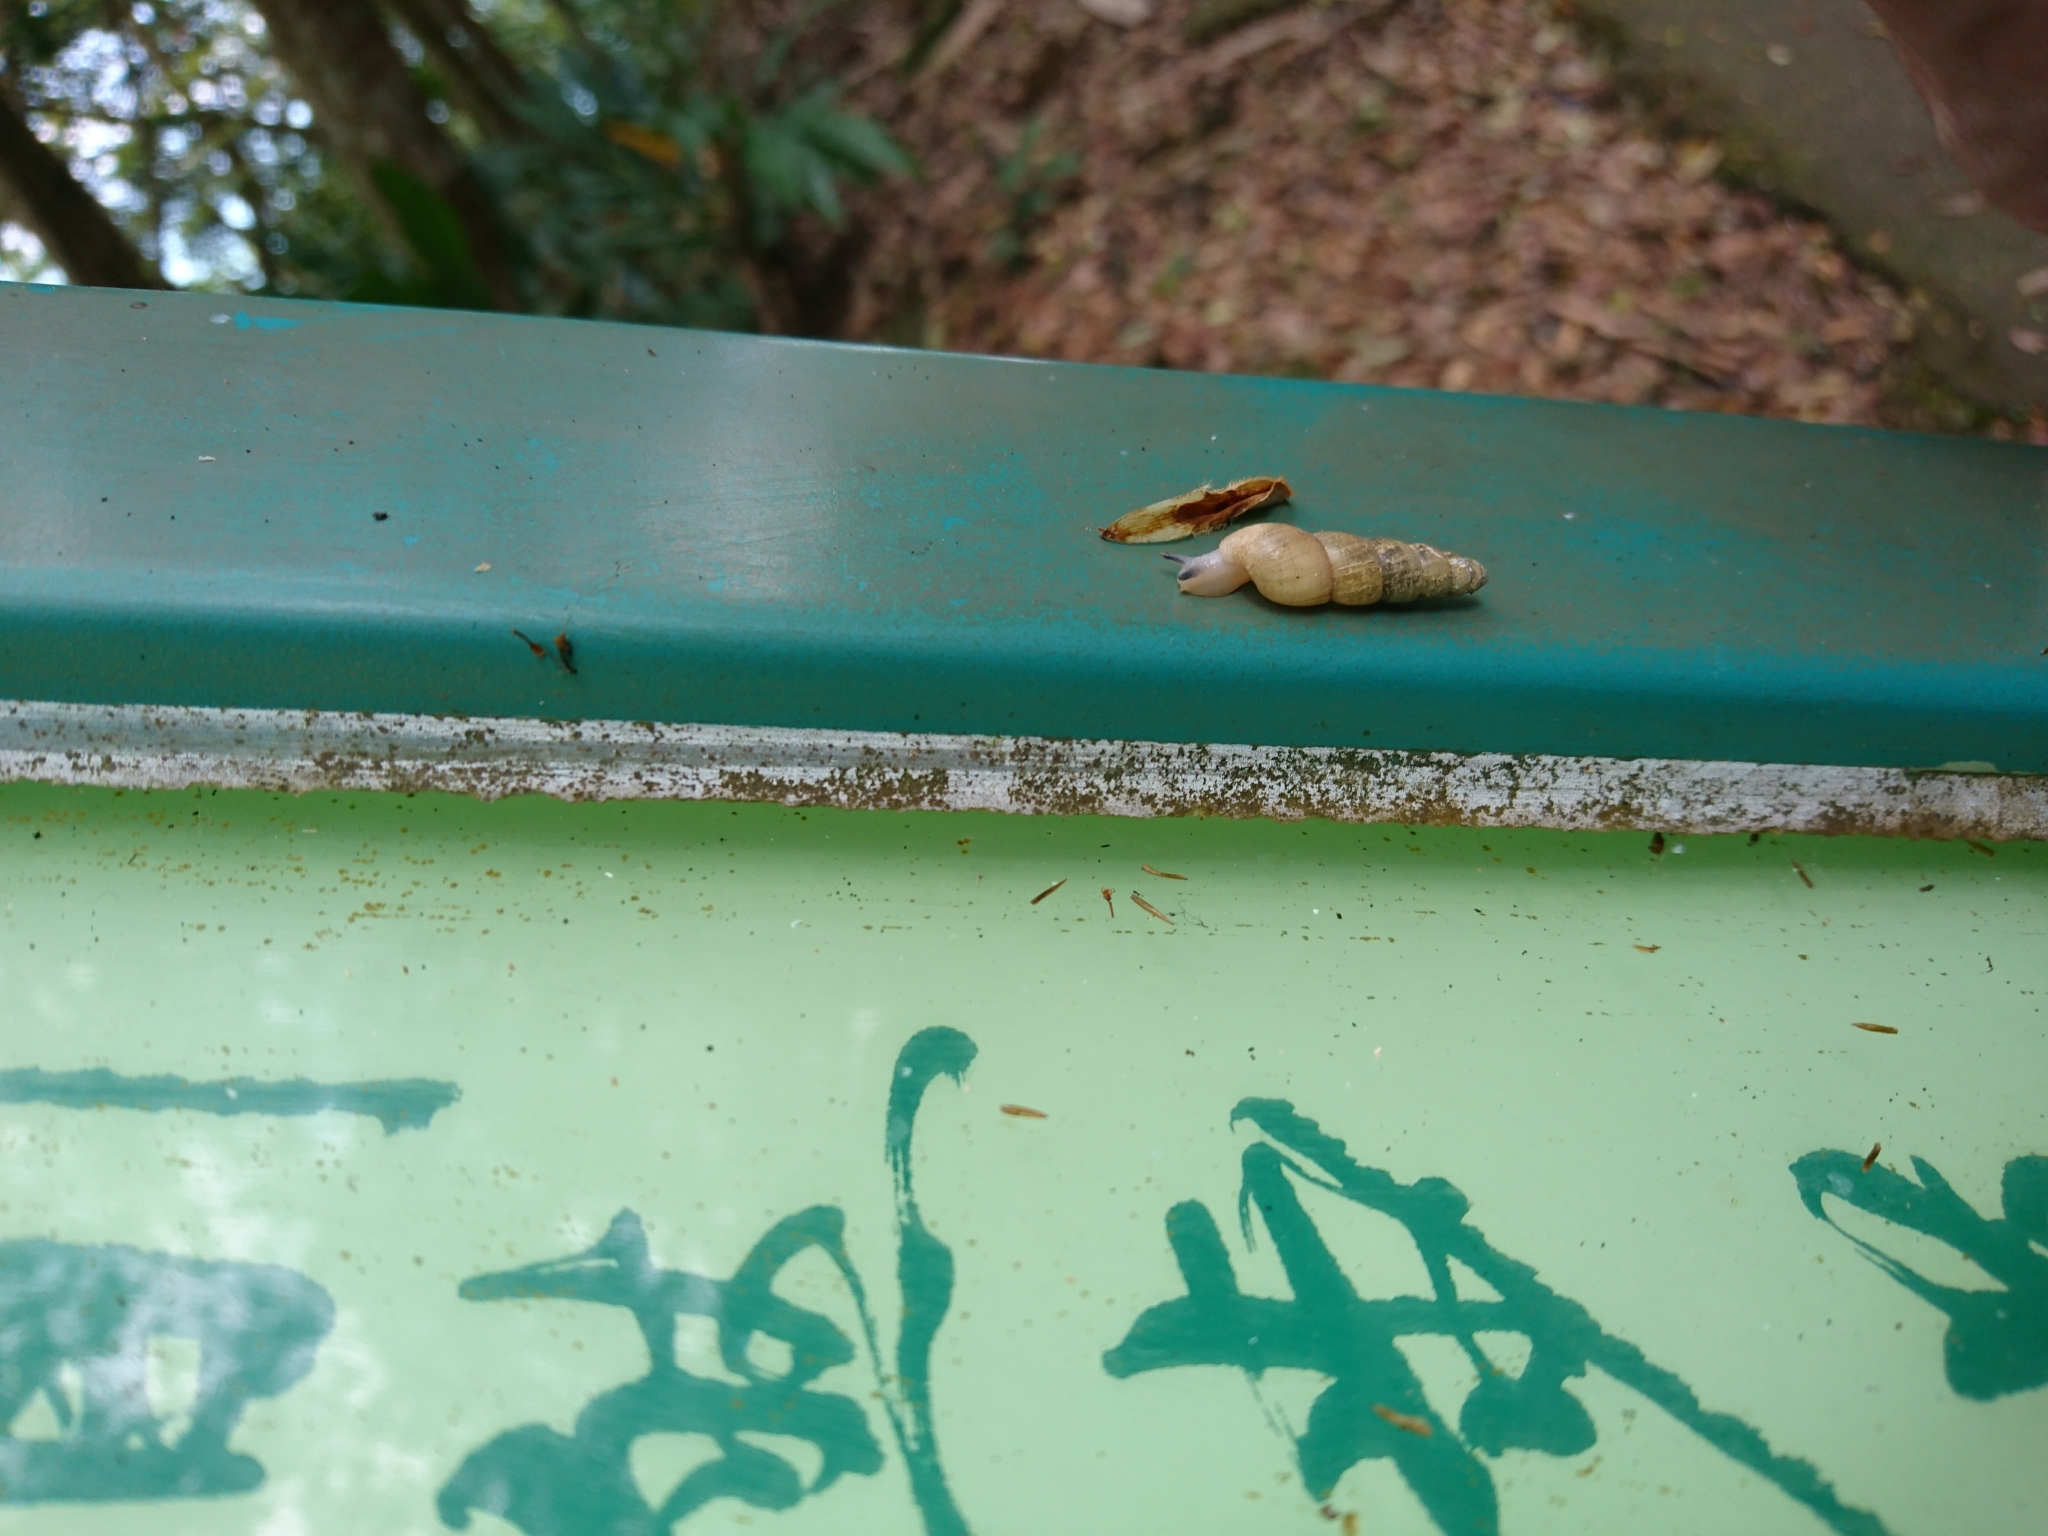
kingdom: Animalia
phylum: Mollusca
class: Gastropoda
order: Stylommatophora
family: Achatinidae
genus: Tortaxis
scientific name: Tortaxis erectus
